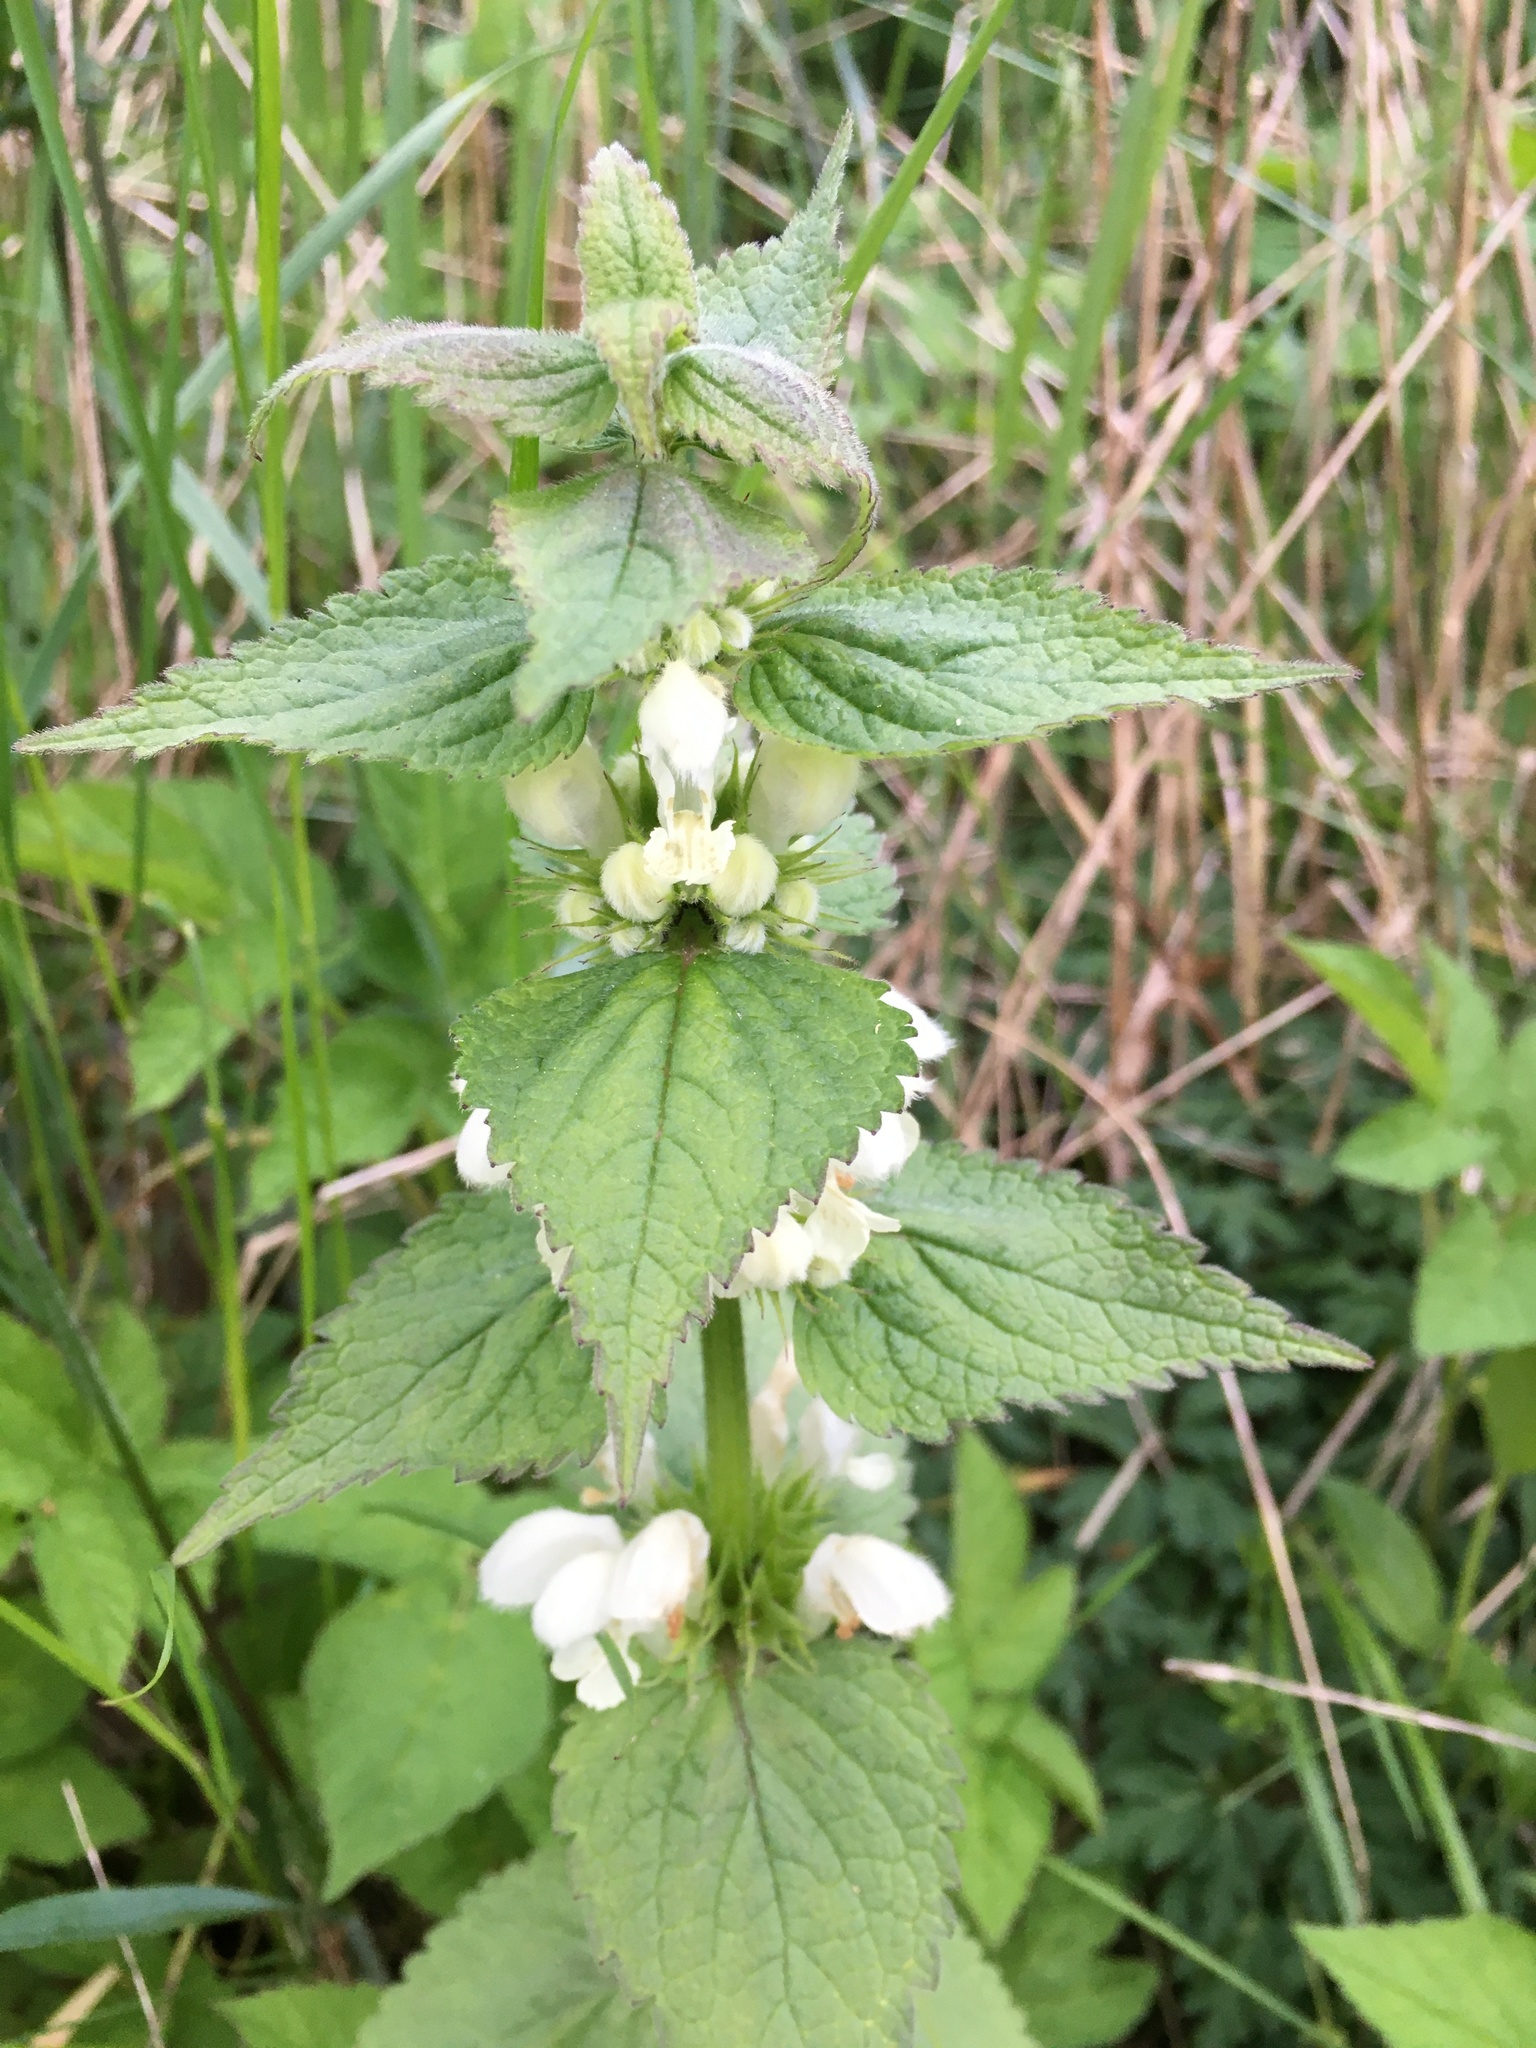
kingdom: Plantae
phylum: Tracheophyta
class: Magnoliopsida
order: Lamiales
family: Lamiaceae
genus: Lamium
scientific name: Lamium album
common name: White dead-nettle
